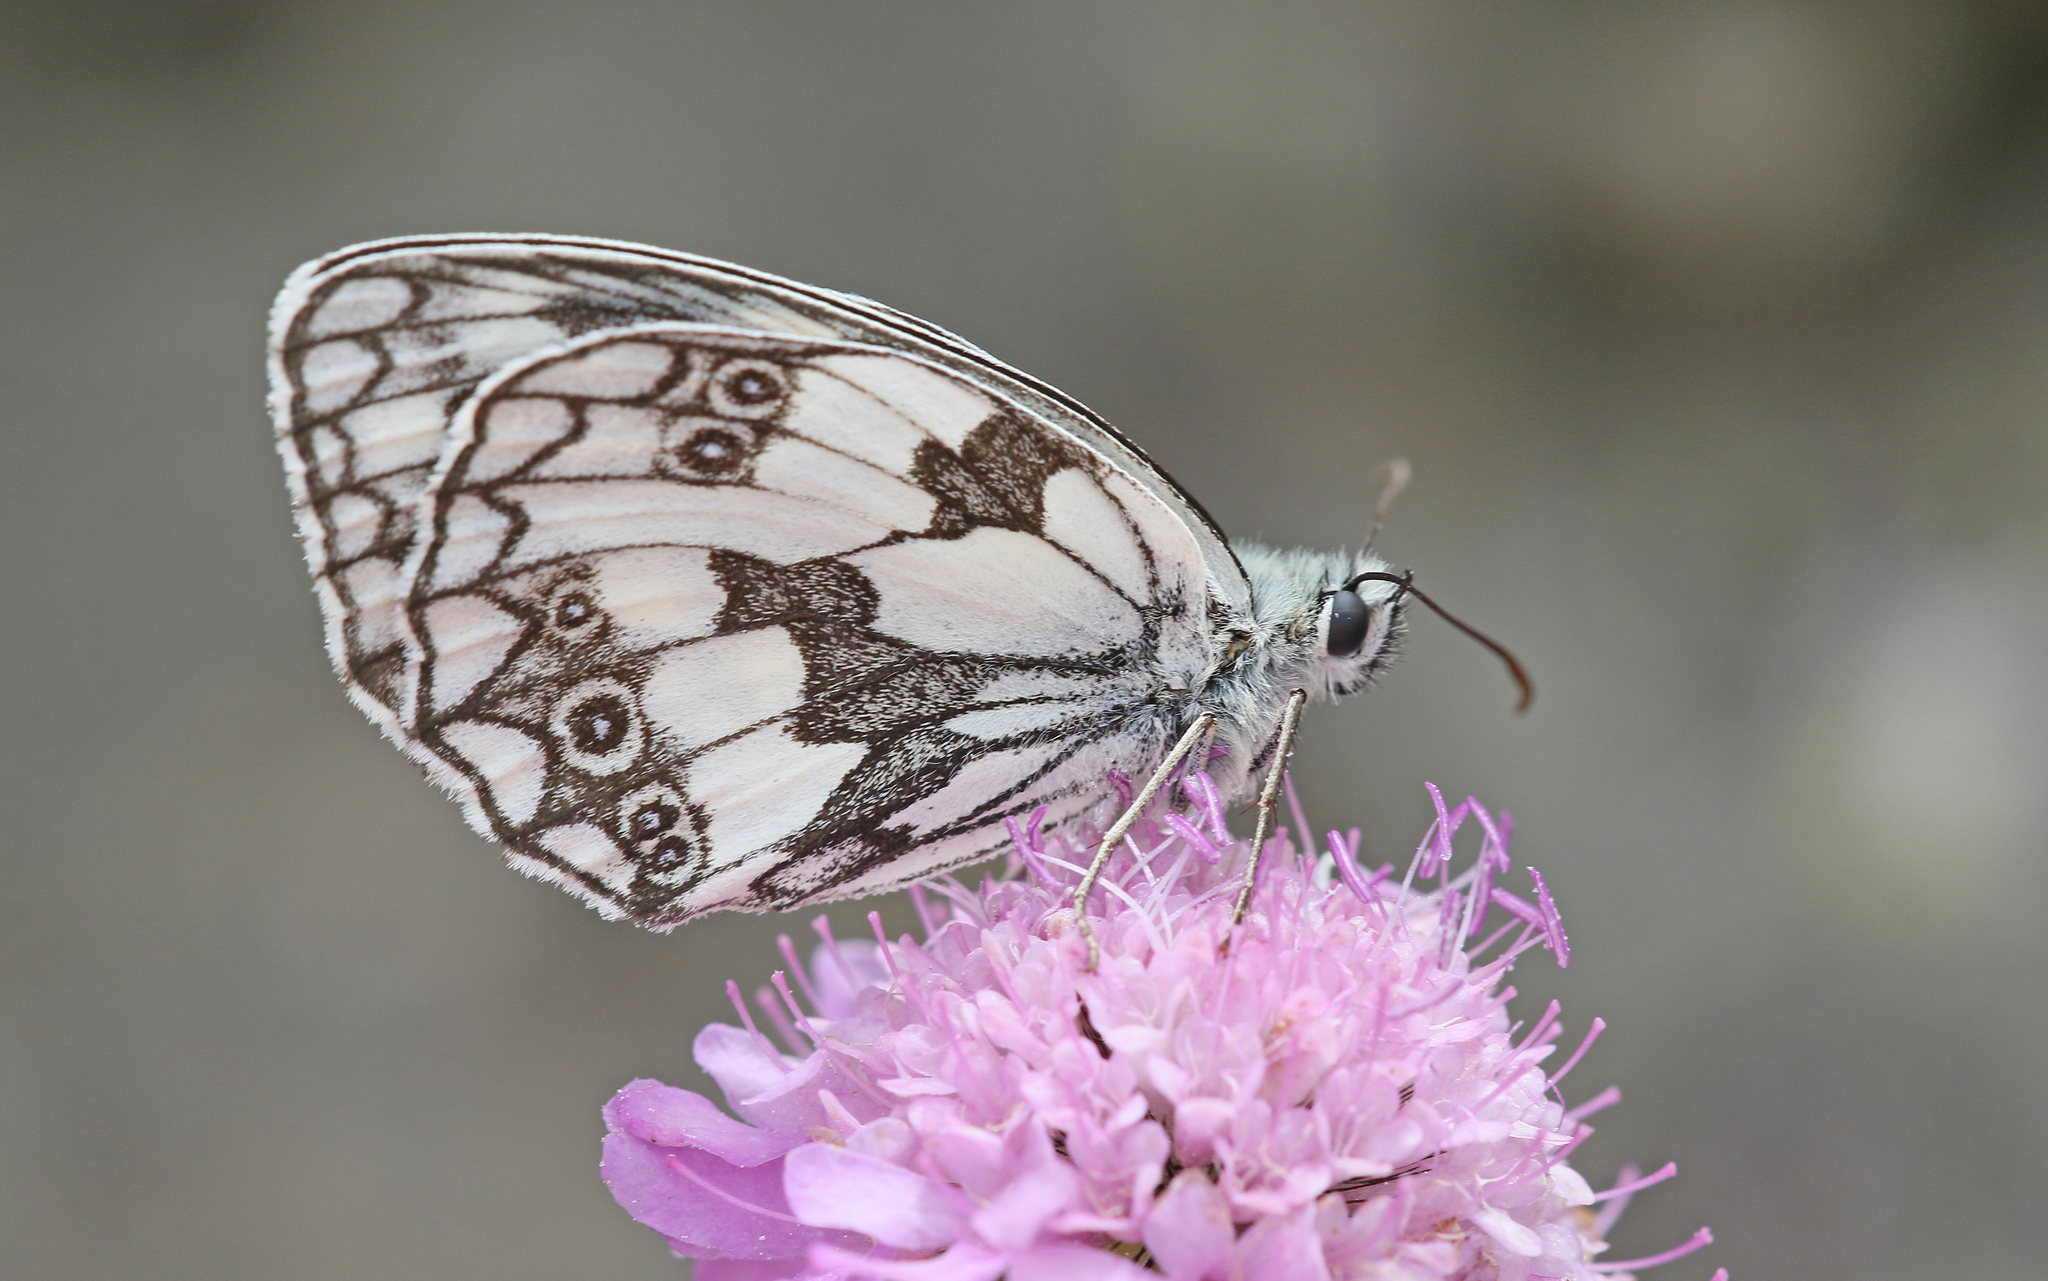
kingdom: Animalia
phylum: Arthropoda
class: Insecta
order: Lepidoptera
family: Nymphalidae
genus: Melanargia
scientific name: Melanargia galathea
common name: Marbled white
